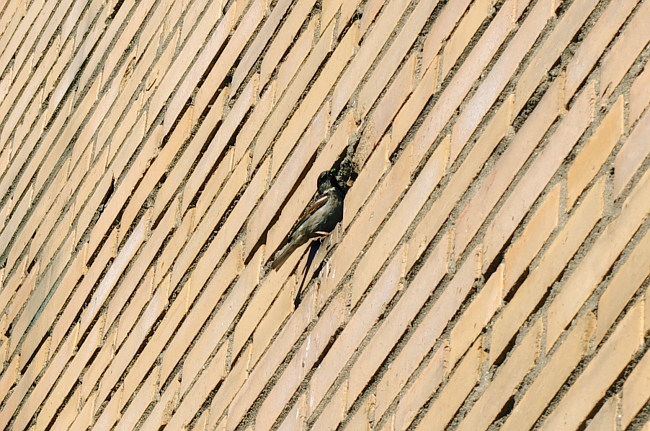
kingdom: Animalia
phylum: Chordata
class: Aves
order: Passeriformes
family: Passeridae
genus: Passer
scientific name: Passer domesticus
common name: House sparrow
